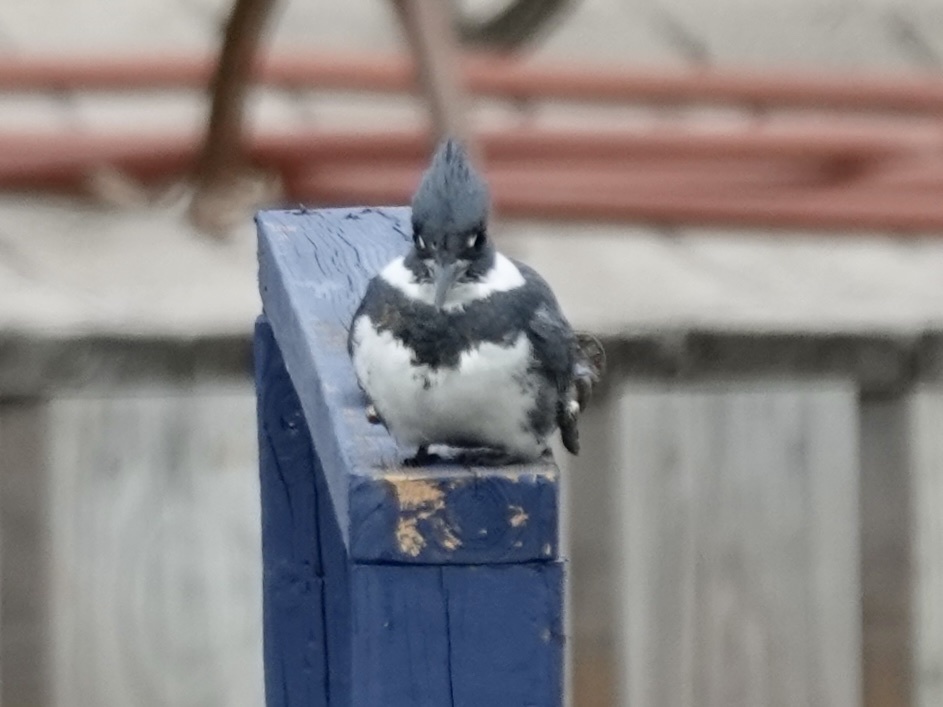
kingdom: Animalia
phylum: Chordata
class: Aves
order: Coraciiformes
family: Alcedinidae
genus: Megaceryle
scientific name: Megaceryle alcyon
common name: Belted kingfisher
